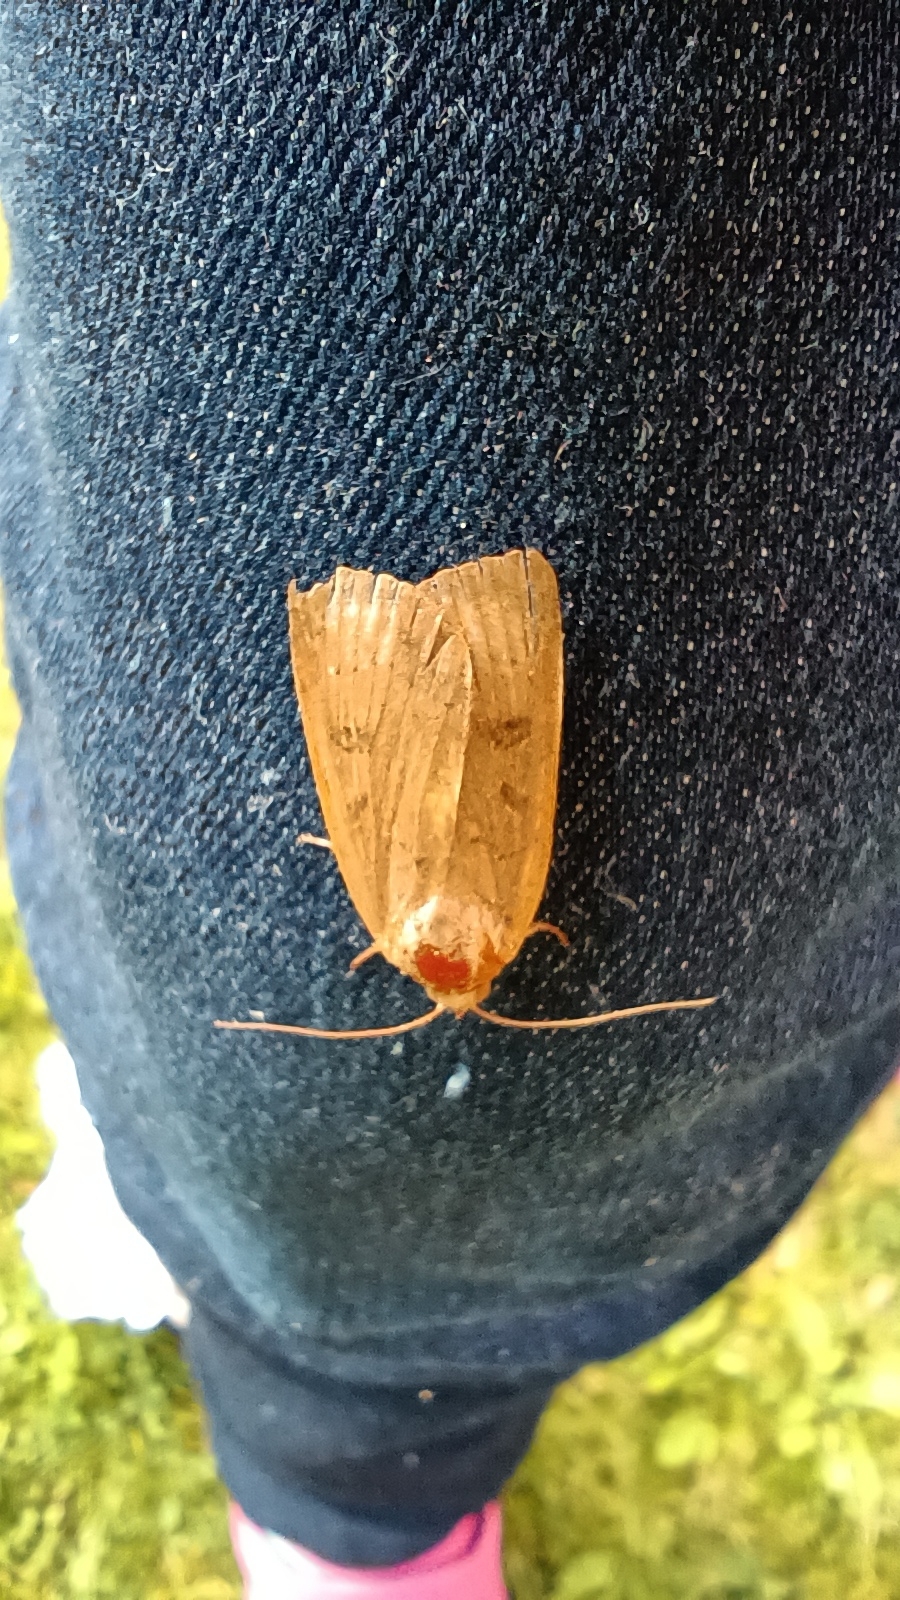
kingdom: Animalia
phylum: Arthropoda
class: Insecta
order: Lepidoptera
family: Noctuidae
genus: Noctua
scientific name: Noctua comes
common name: Lesser yellow underwing
